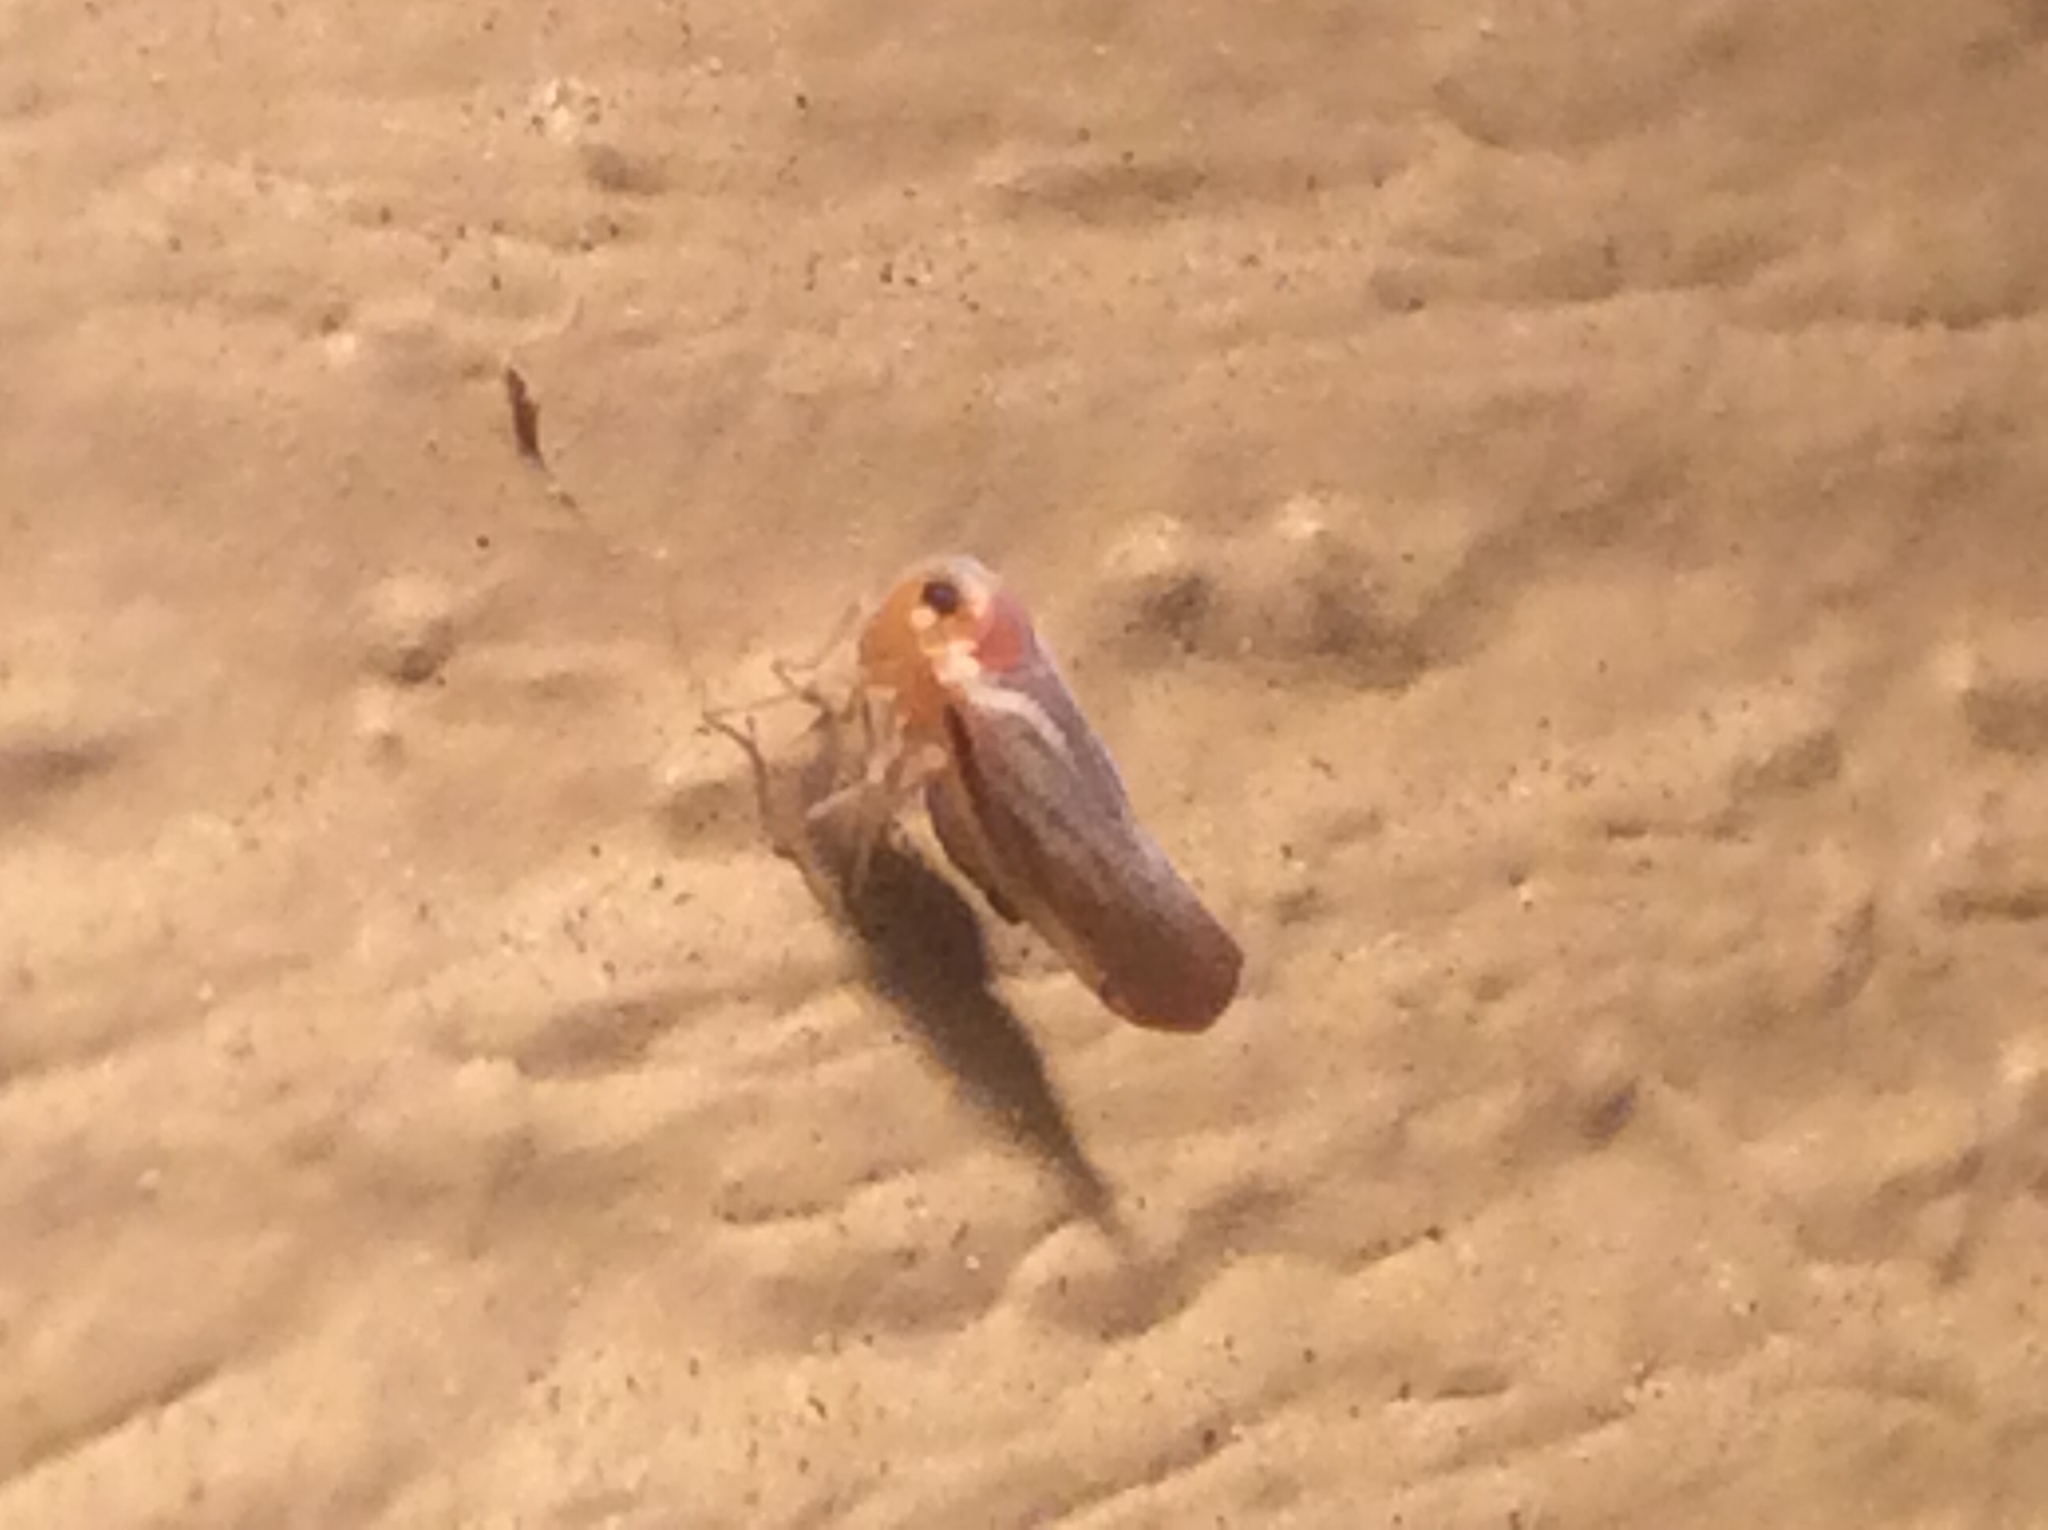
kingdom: Animalia
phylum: Arthropoda
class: Insecta
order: Hemiptera
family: Derbidae
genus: Omolicna
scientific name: Omolicna uhleri
